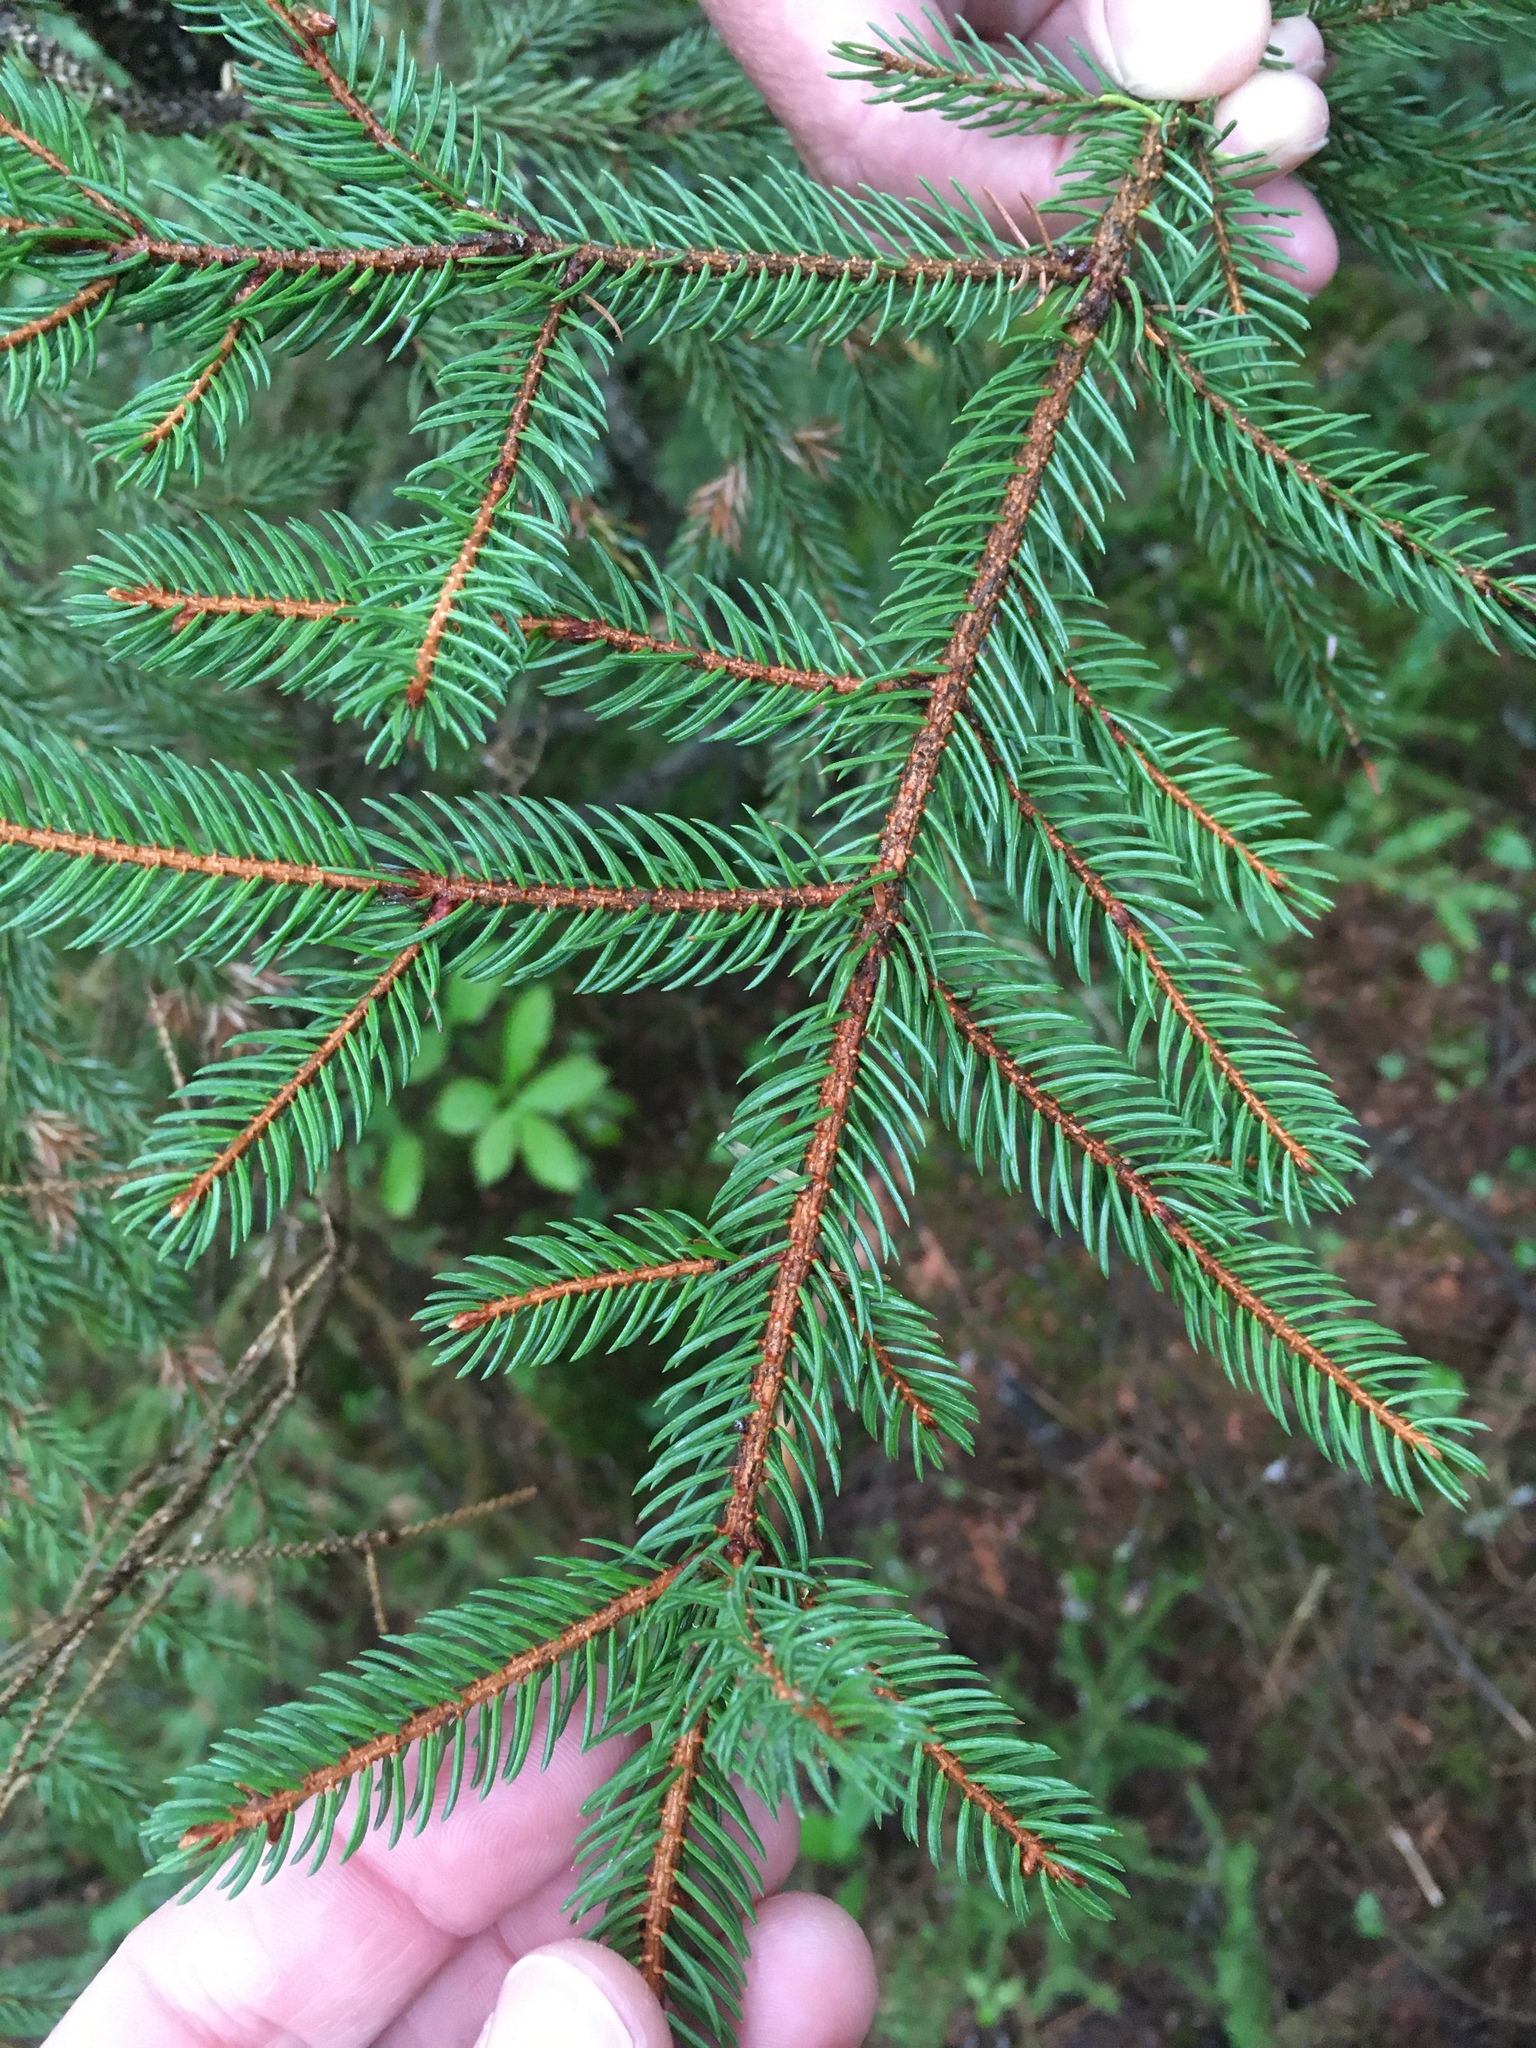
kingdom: Plantae
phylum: Tracheophyta
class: Pinopsida
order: Pinales
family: Pinaceae
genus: Picea
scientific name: Picea rubens
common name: Red spruce
